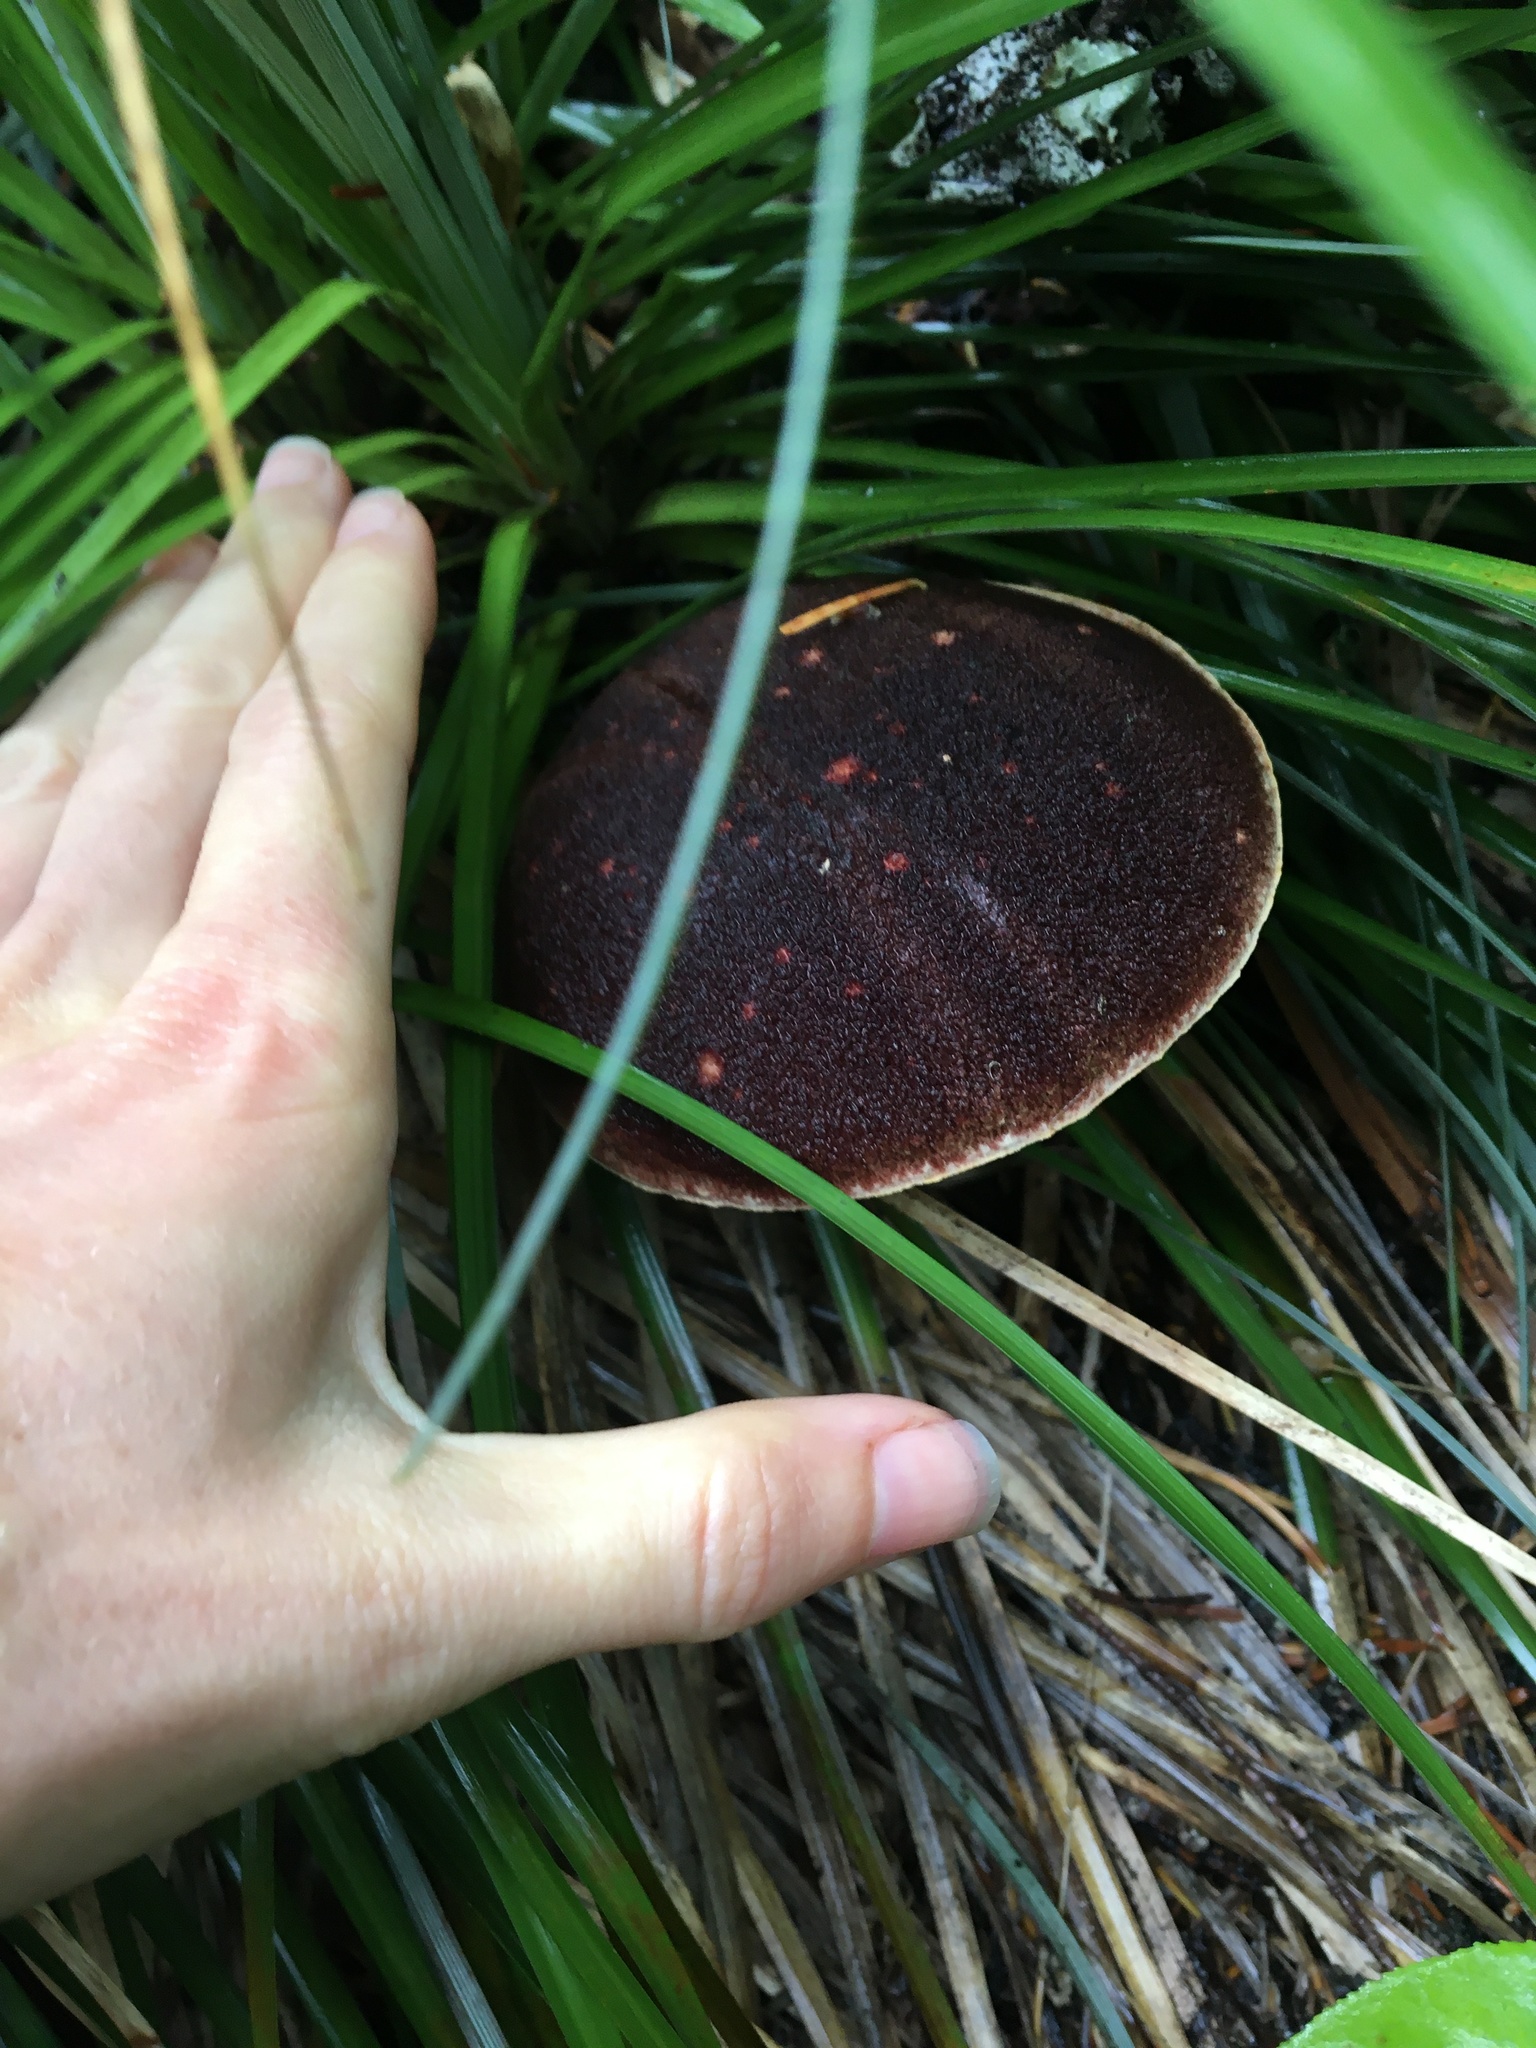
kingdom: Fungi
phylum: Basidiomycota
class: Agaricomycetes
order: Boletales
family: Boletaceae
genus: Aureoboletus
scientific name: Aureoboletus mirabilis
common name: Admirable bolete
